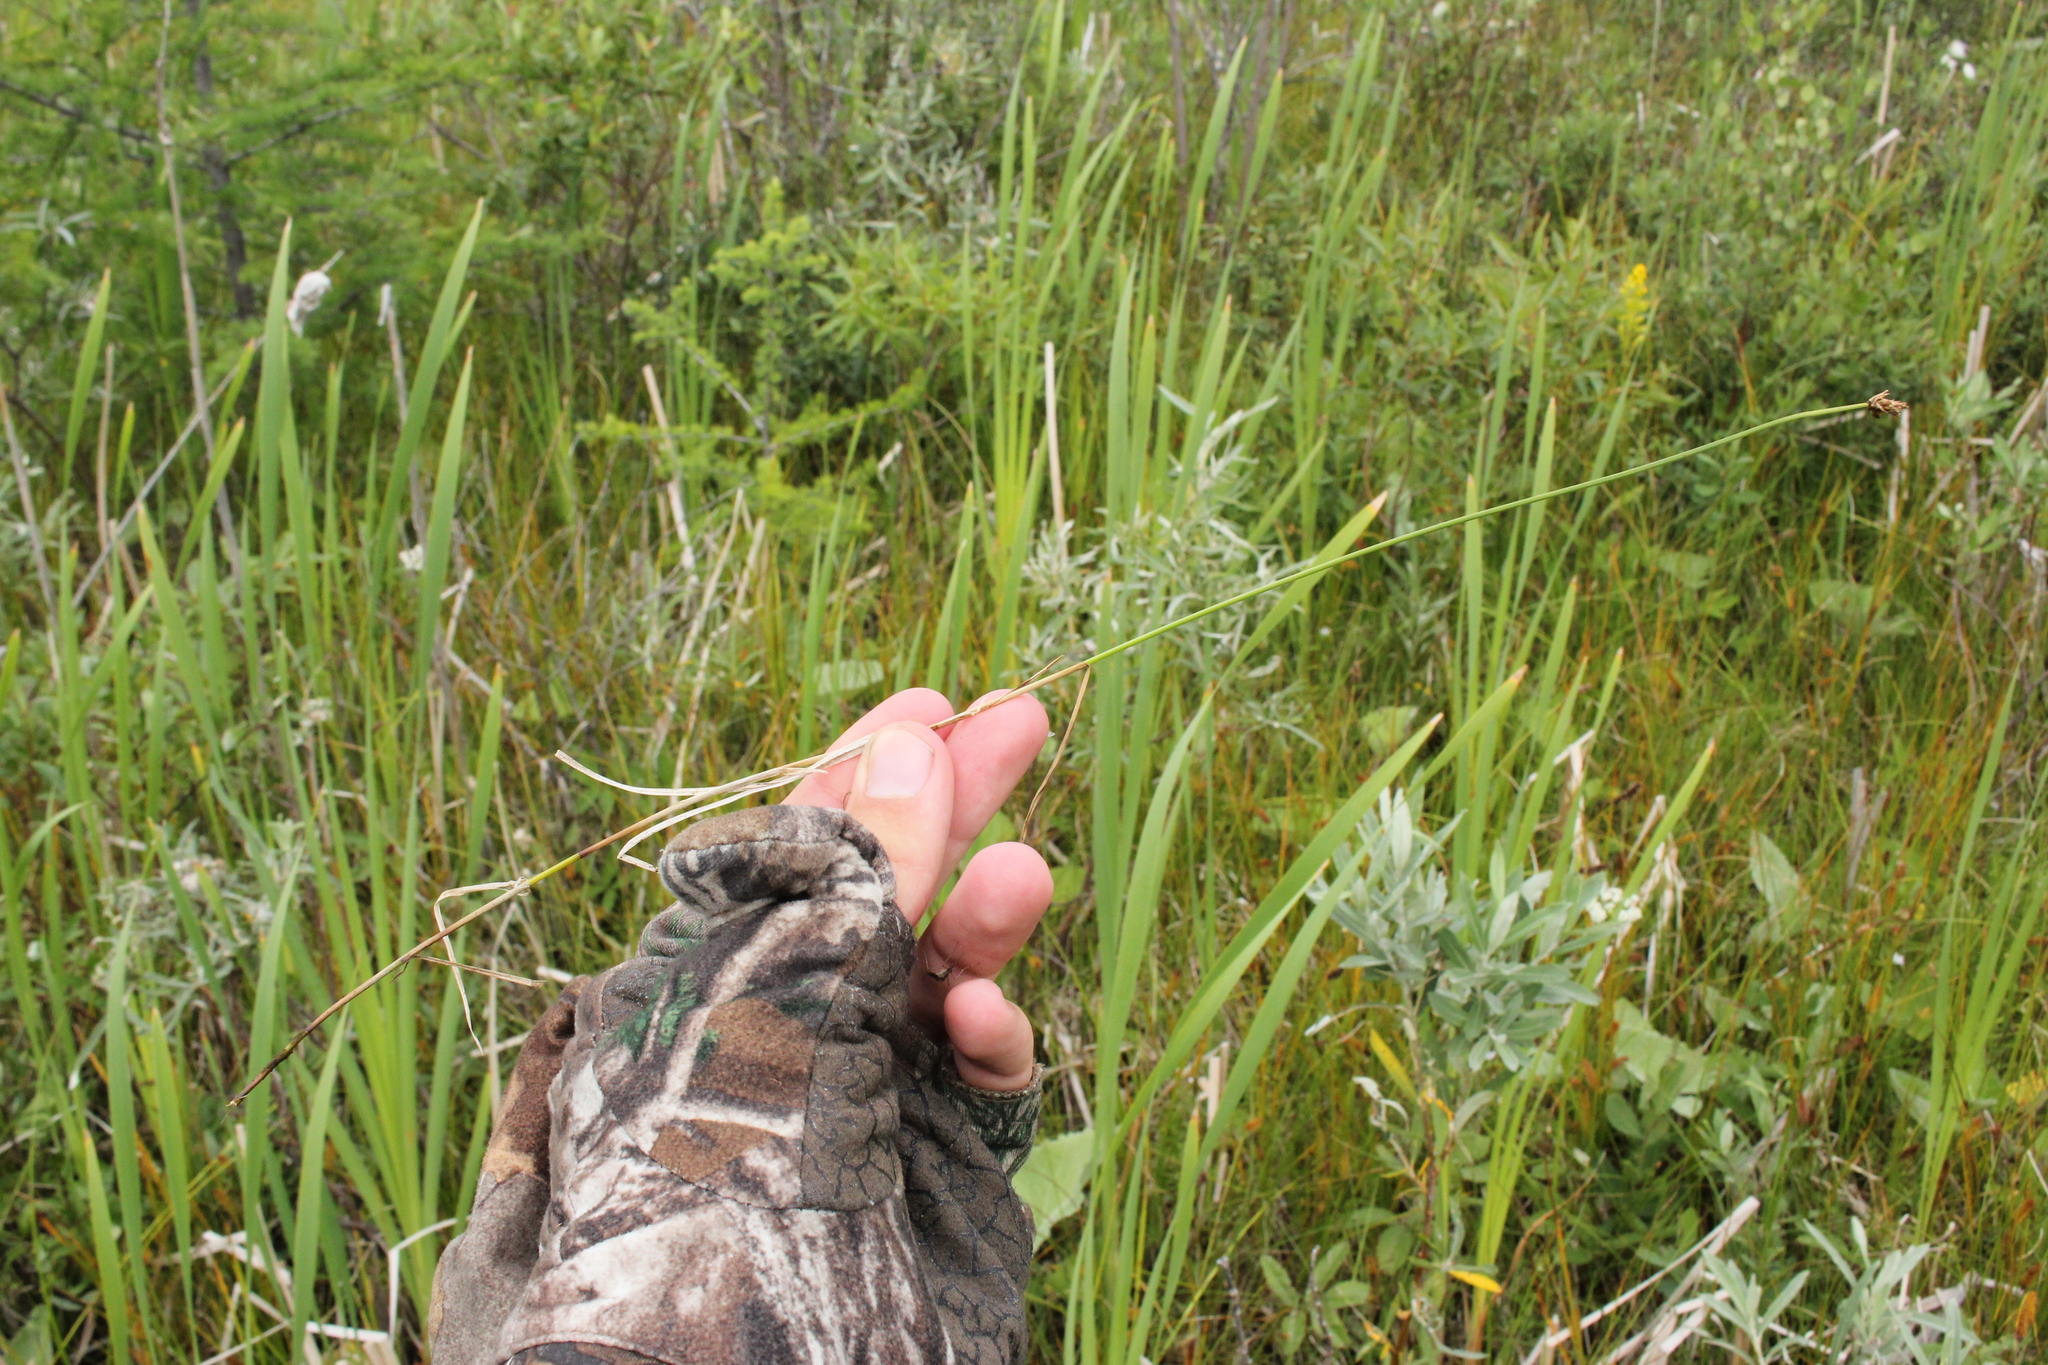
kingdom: Plantae
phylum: Tracheophyta
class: Liliopsida
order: Poales
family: Cyperaceae
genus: Carex
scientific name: Carex chordorrhiza
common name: String sedge
